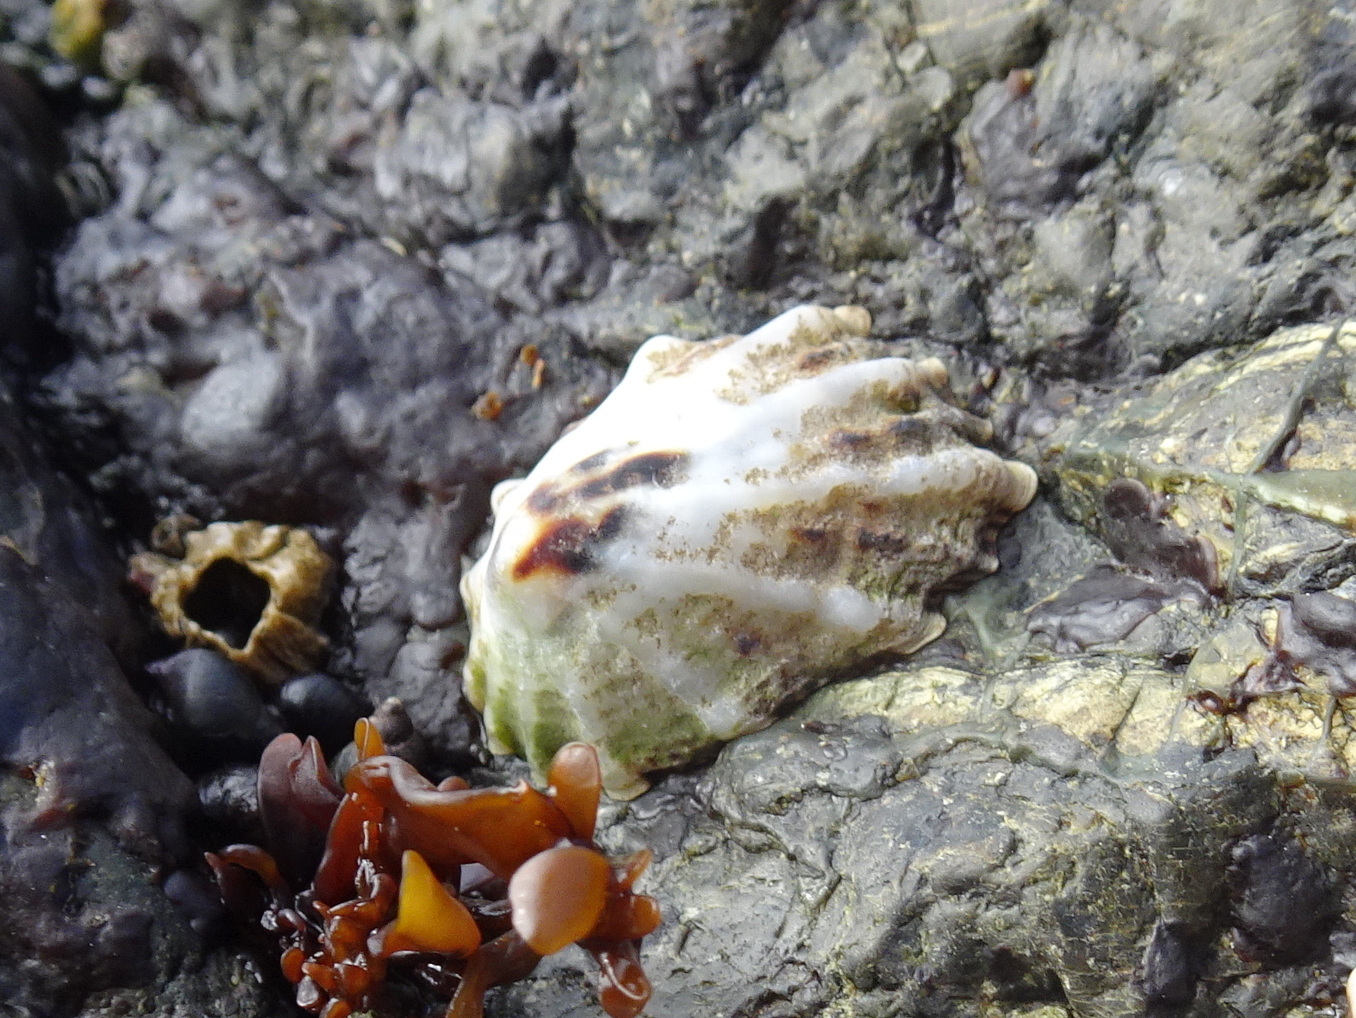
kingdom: Animalia
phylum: Mollusca
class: Gastropoda
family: Lottiidae
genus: Lottia
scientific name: Lottia scabra
